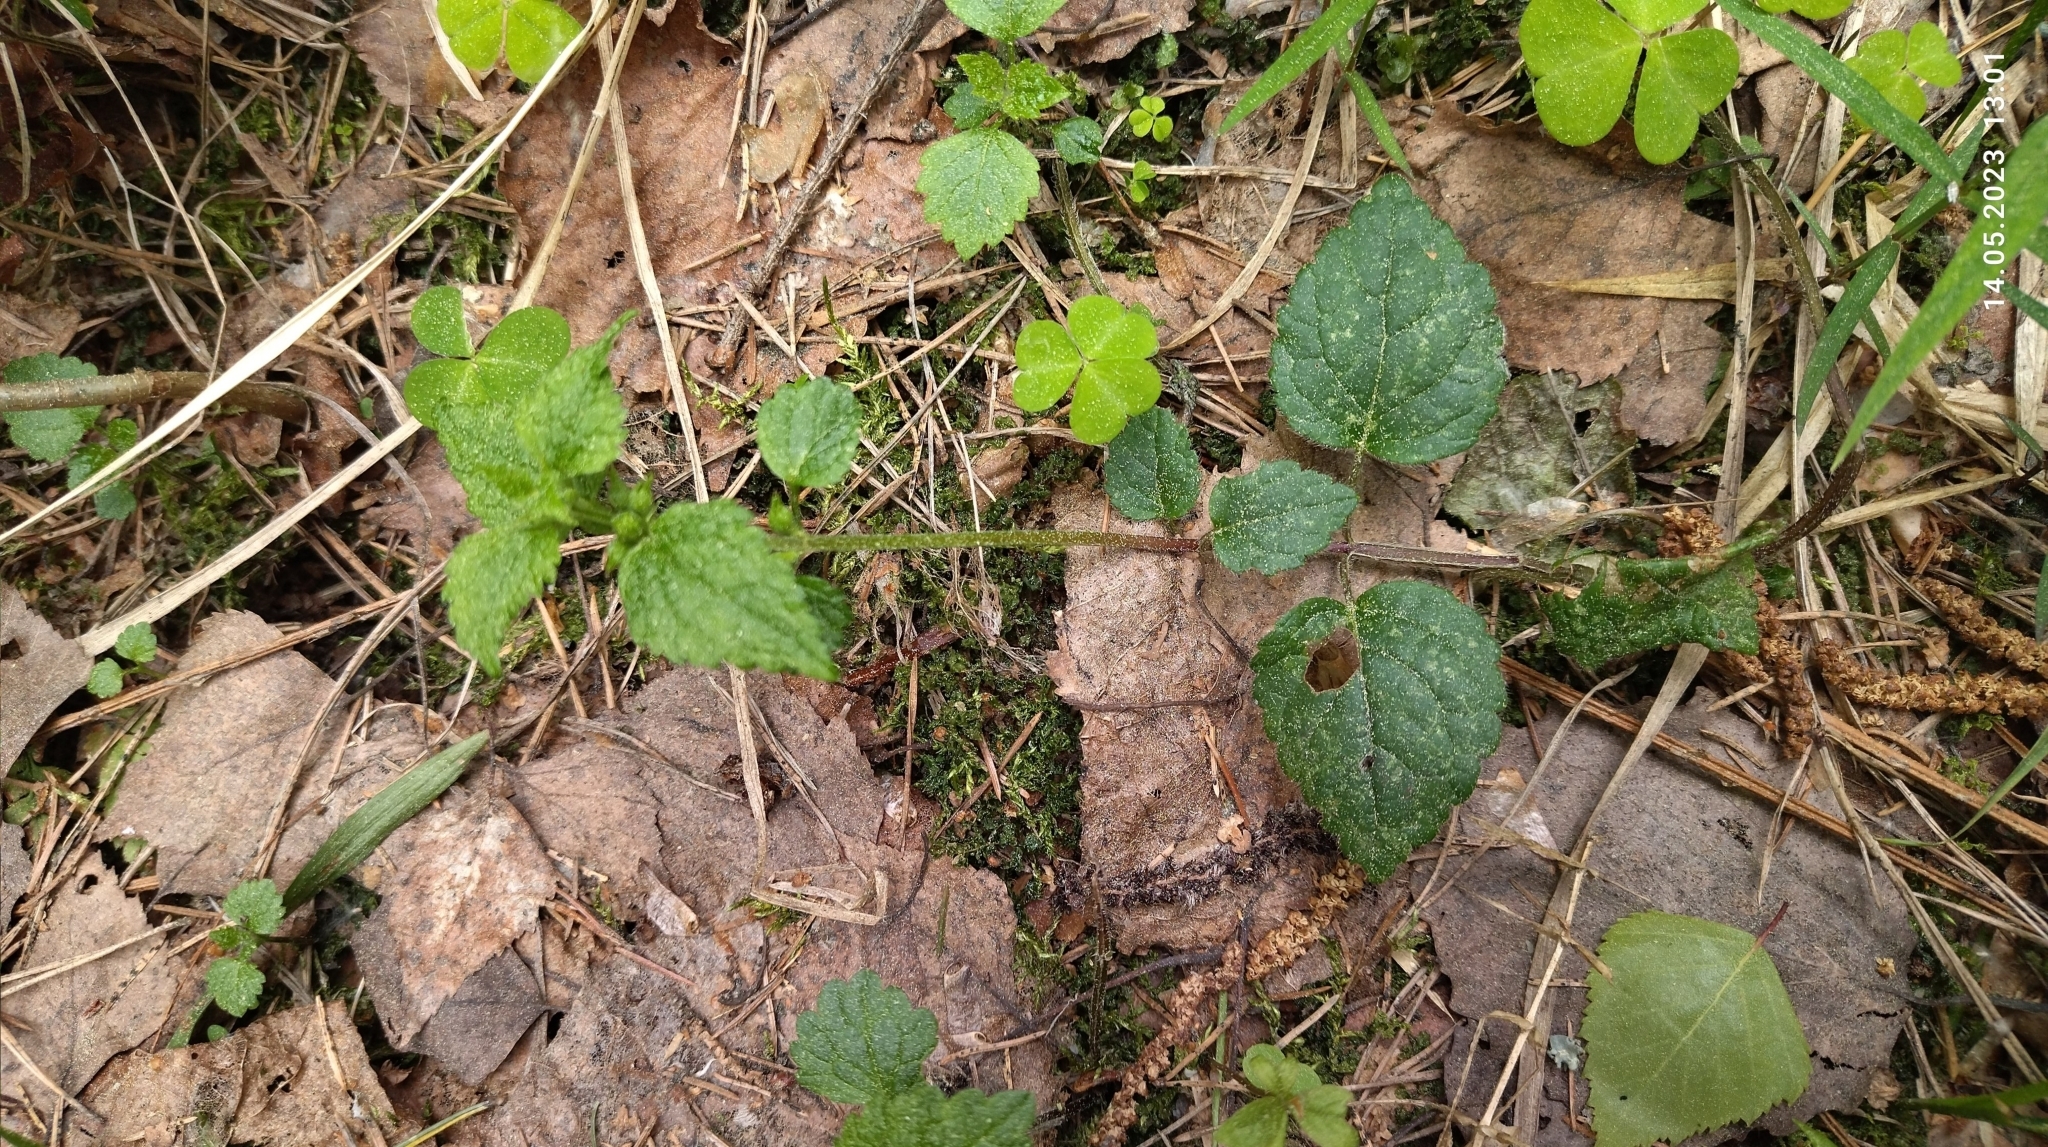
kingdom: Plantae
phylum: Tracheophyta
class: Magnoliopsida
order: Lamiales
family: Lamiaceae
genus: Lamium
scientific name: Lamium galeobdolon
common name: Yellow archangel
